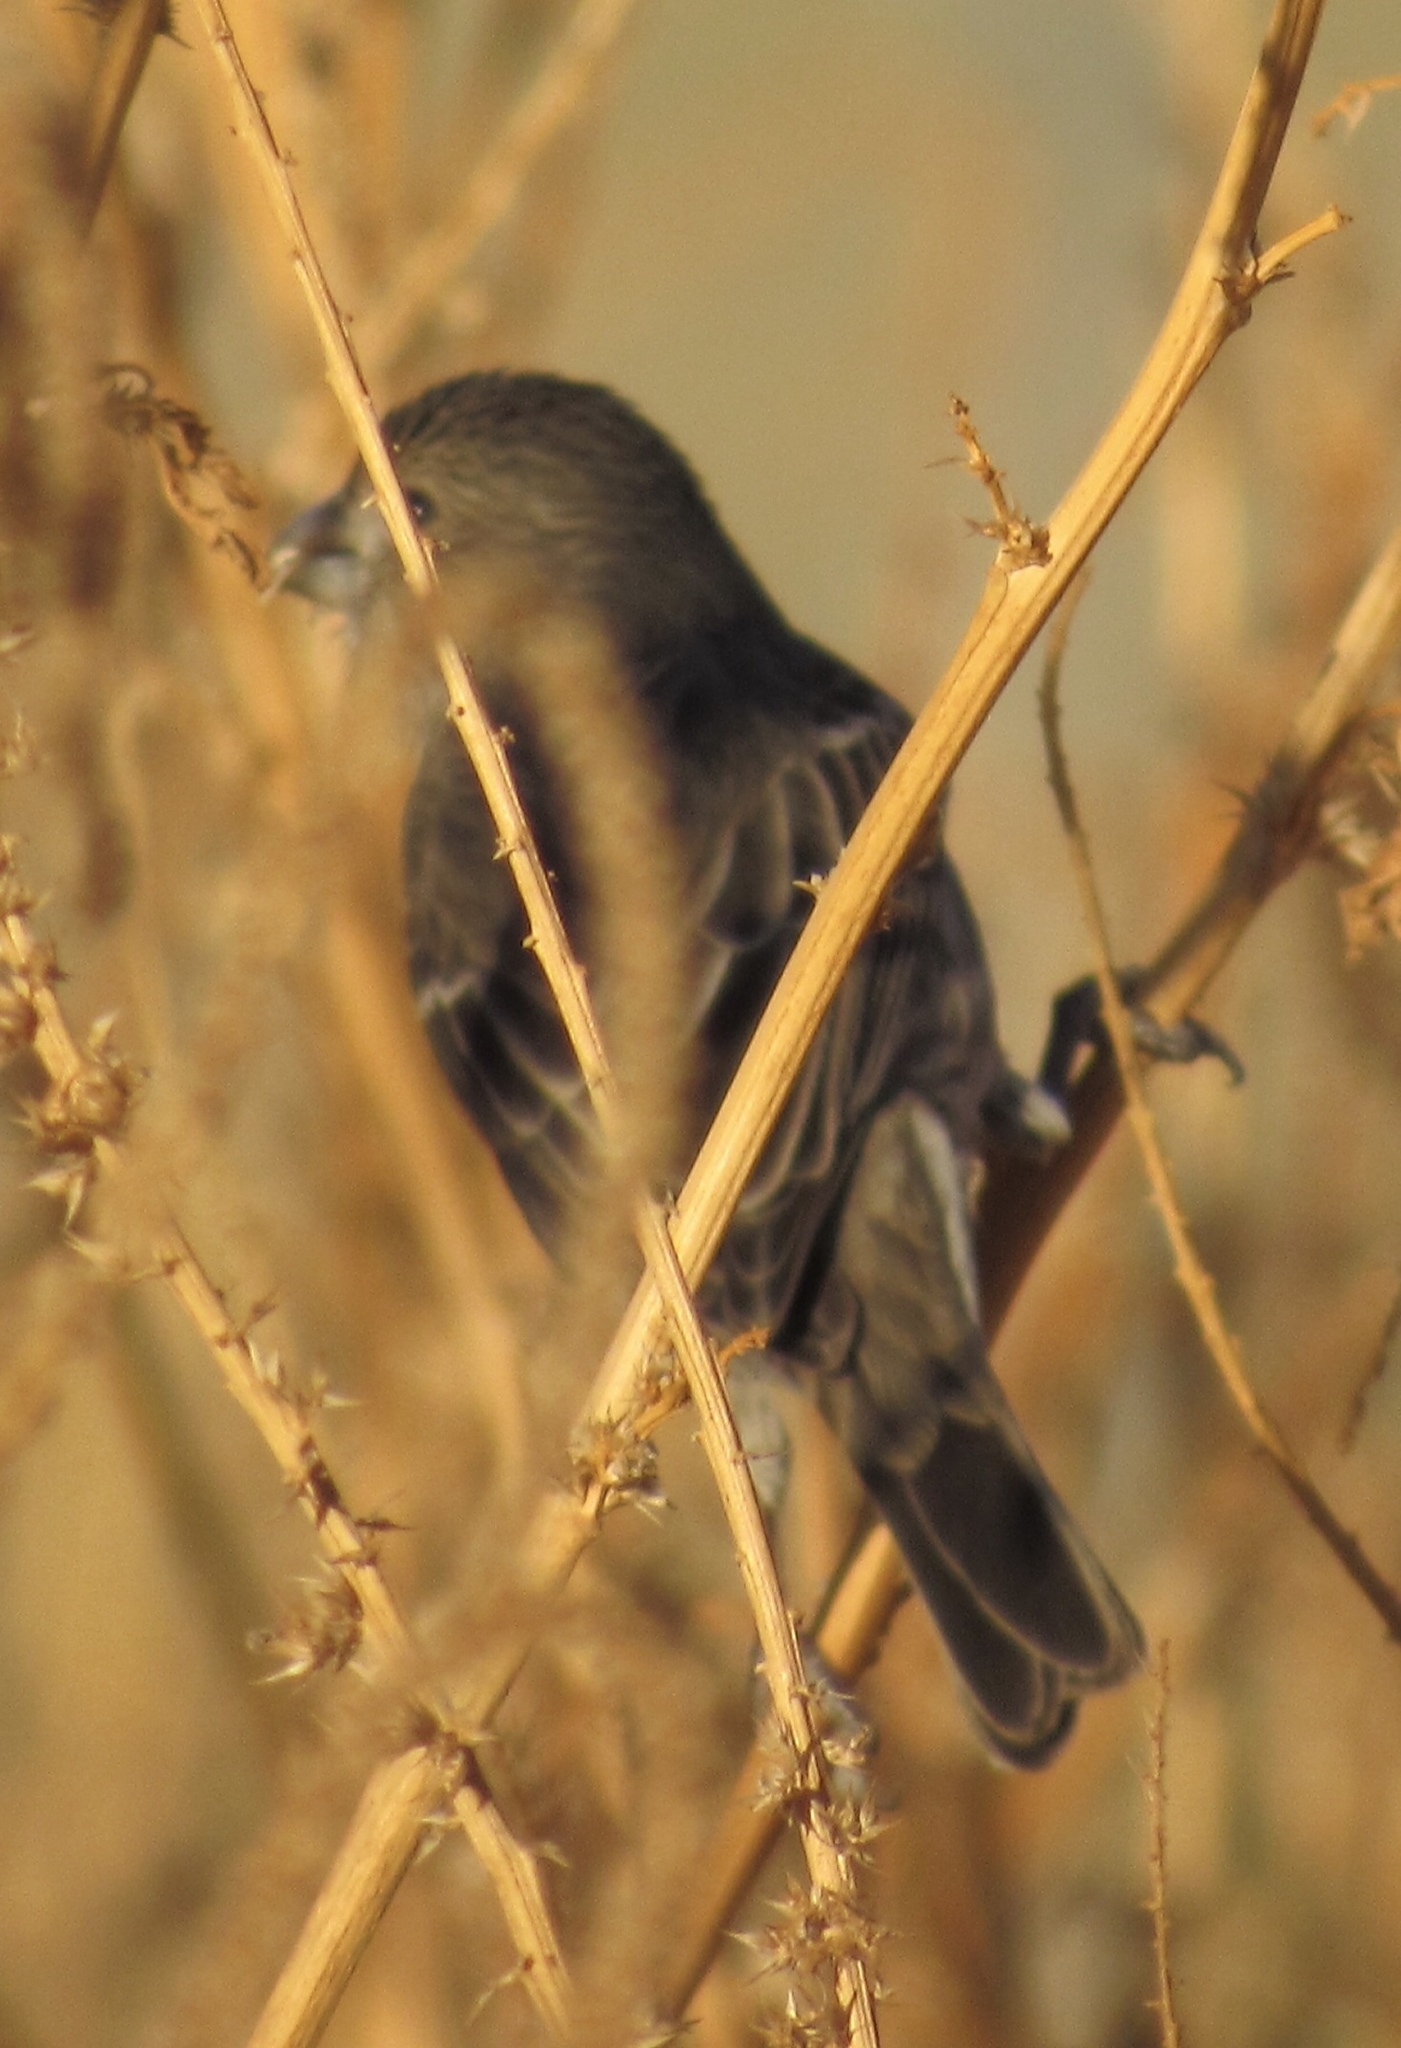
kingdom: Animalia
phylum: Chordata
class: Aves
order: Passeriformes
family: Fringillidae
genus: Haemorhous
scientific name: Haemorhous mexicanus
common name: House finch
